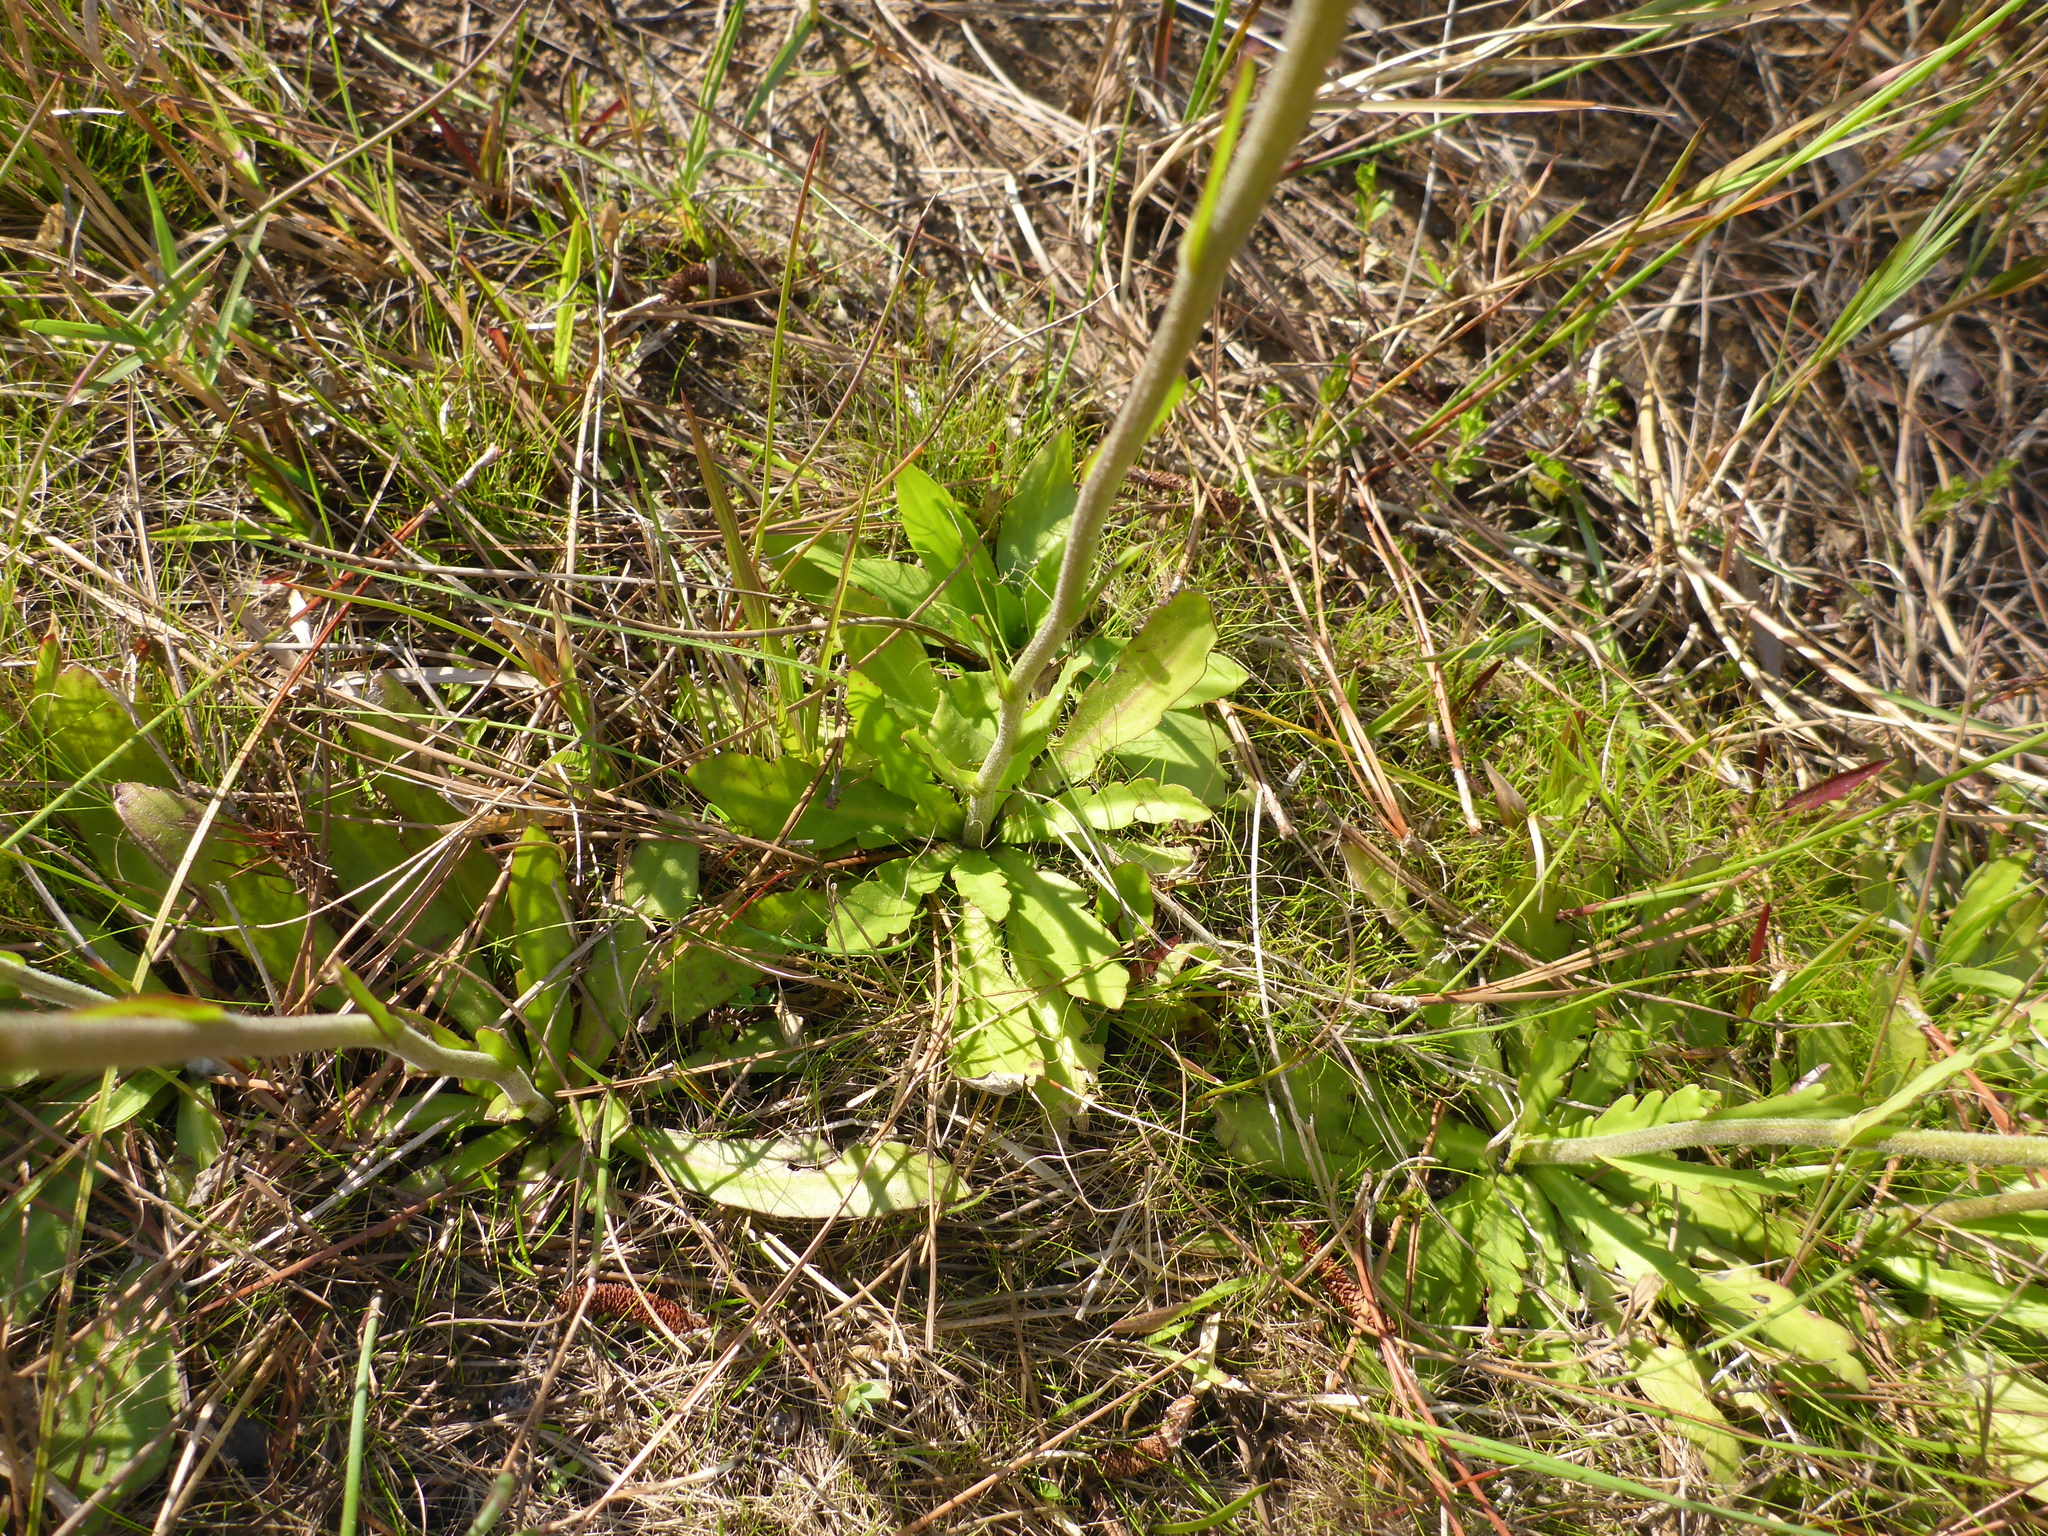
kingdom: Plantae
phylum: Tracheophyta
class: Magnoliopsida
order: Asterales
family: Asteraceae
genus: Helenium
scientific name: Helenium vernale
